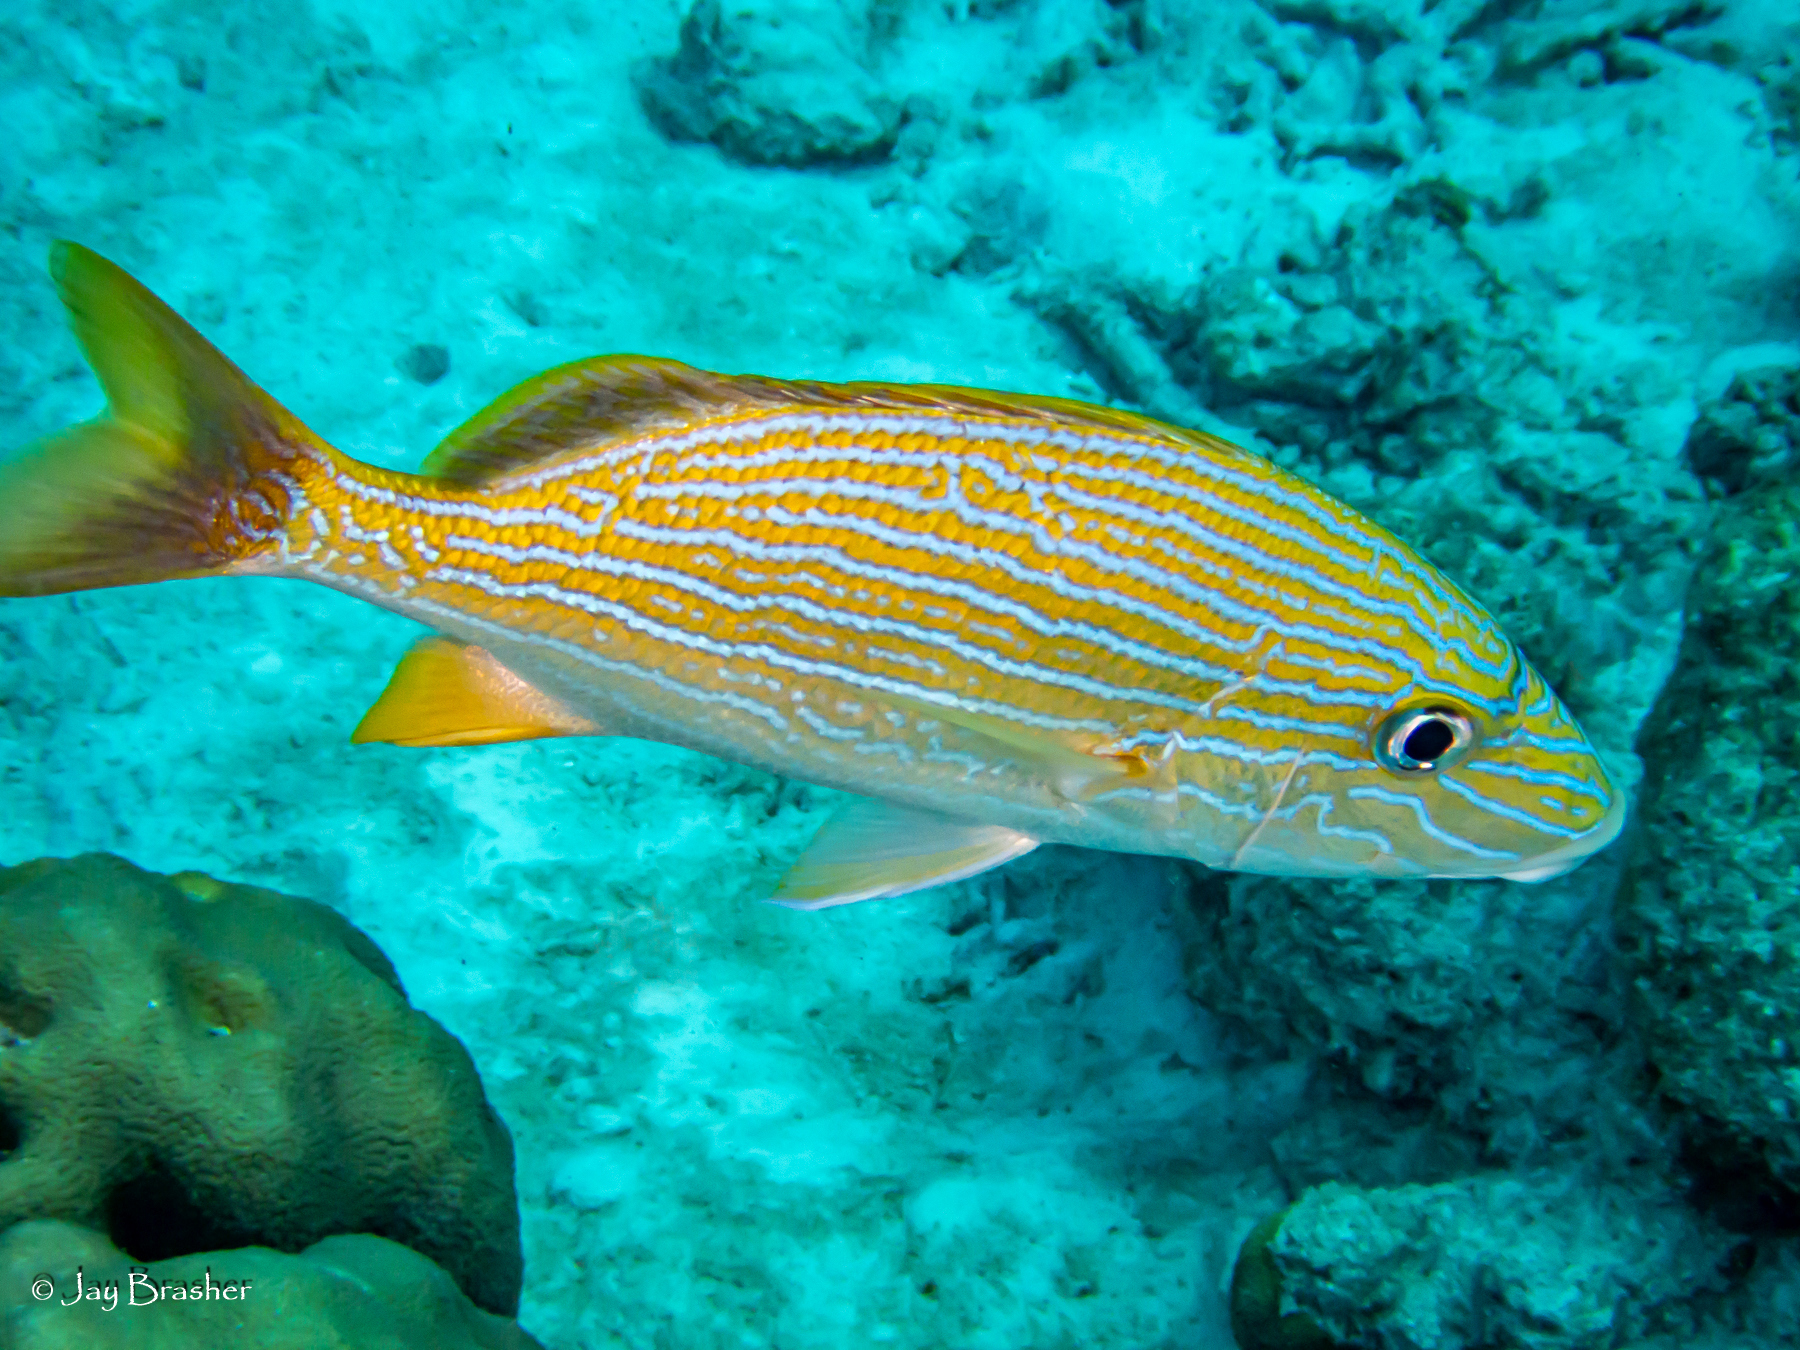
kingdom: Animalia
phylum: Chordata
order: Perciformes
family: Haemulidae
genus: Haemulon
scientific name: Haemulon sciurus
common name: Bluestriped grunt
